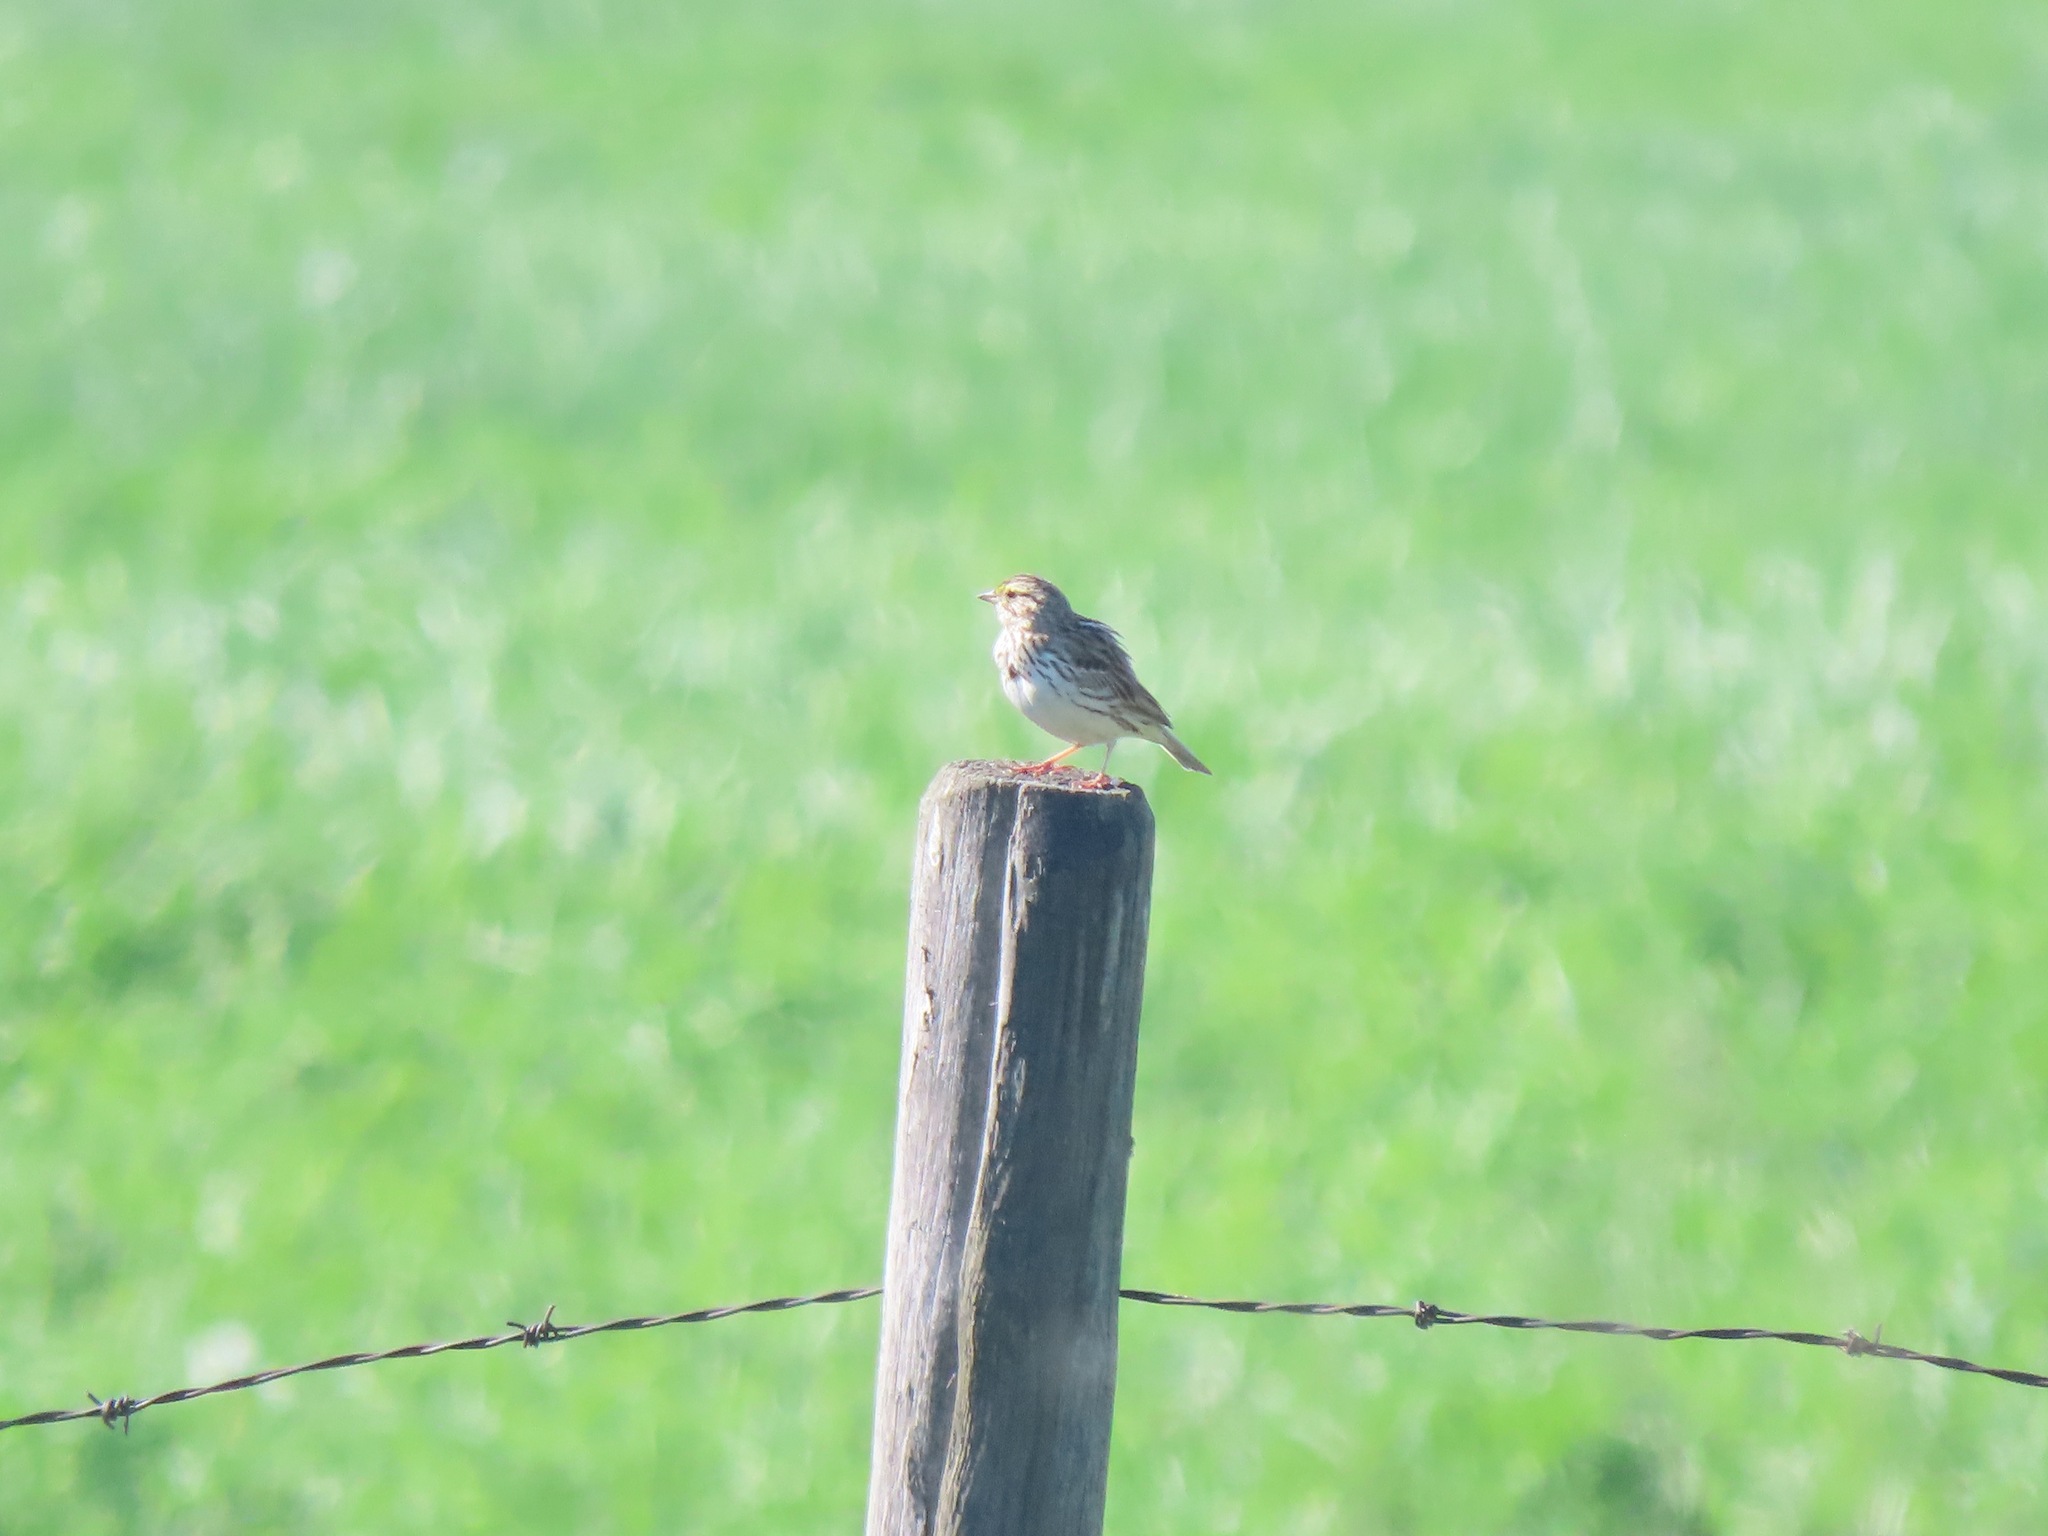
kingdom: Animalia
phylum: Chordata
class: Aves
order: Passeriformes
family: Passerellidae
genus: Passerculus
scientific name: Passerculus sandwichensis
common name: Savannah sparrow
